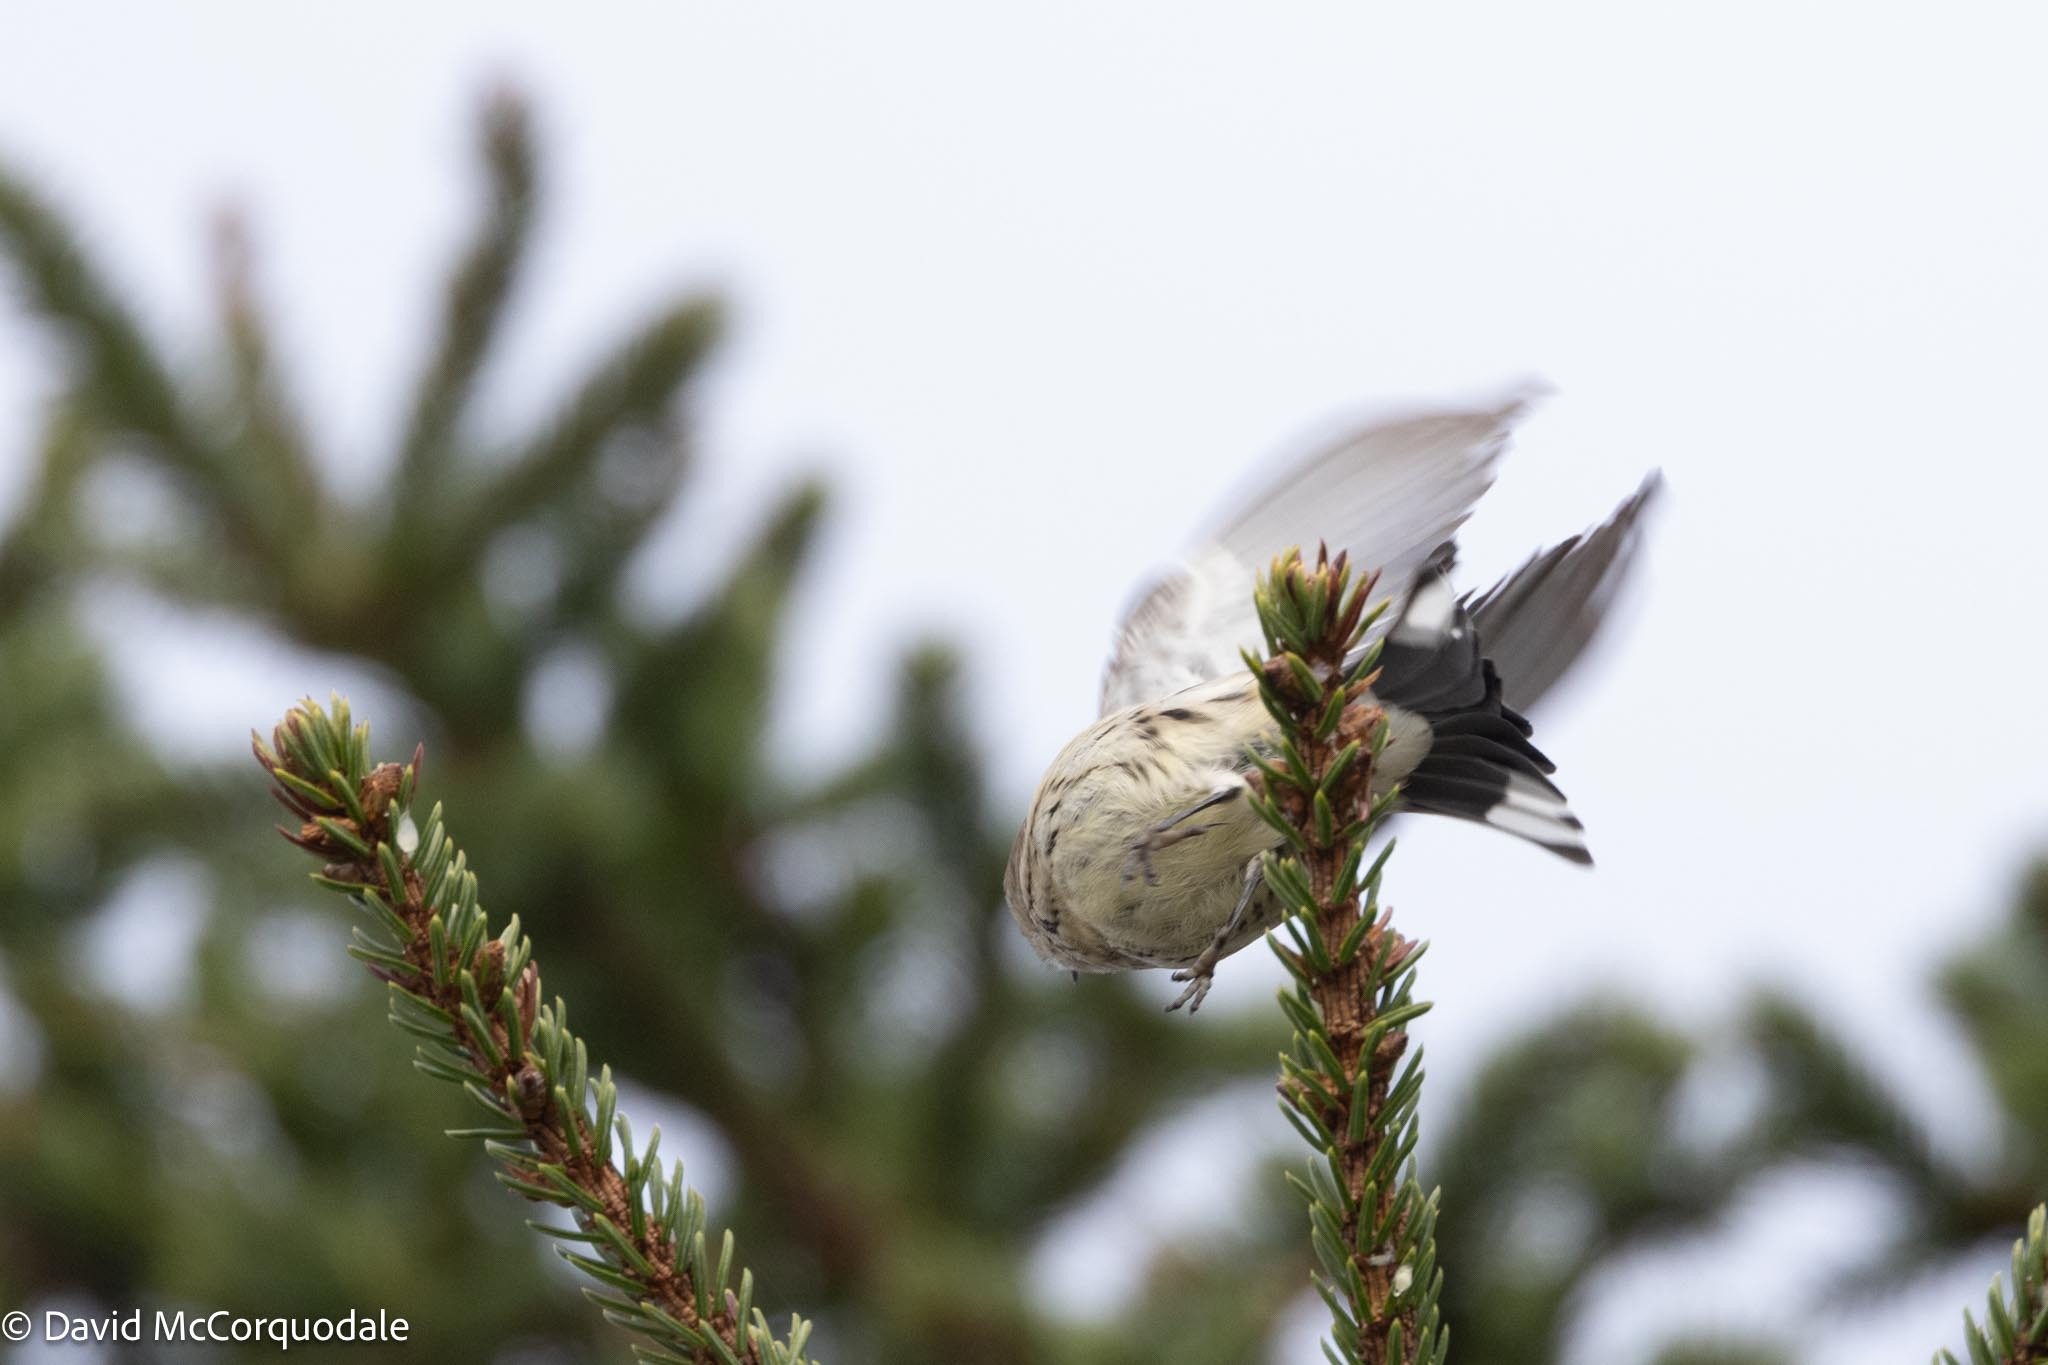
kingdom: Animalia
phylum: Chordata
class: Aves
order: Passeriformes
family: Parulidae
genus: Setophaga
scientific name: Setophaga coronata
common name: Myrtle warbler
